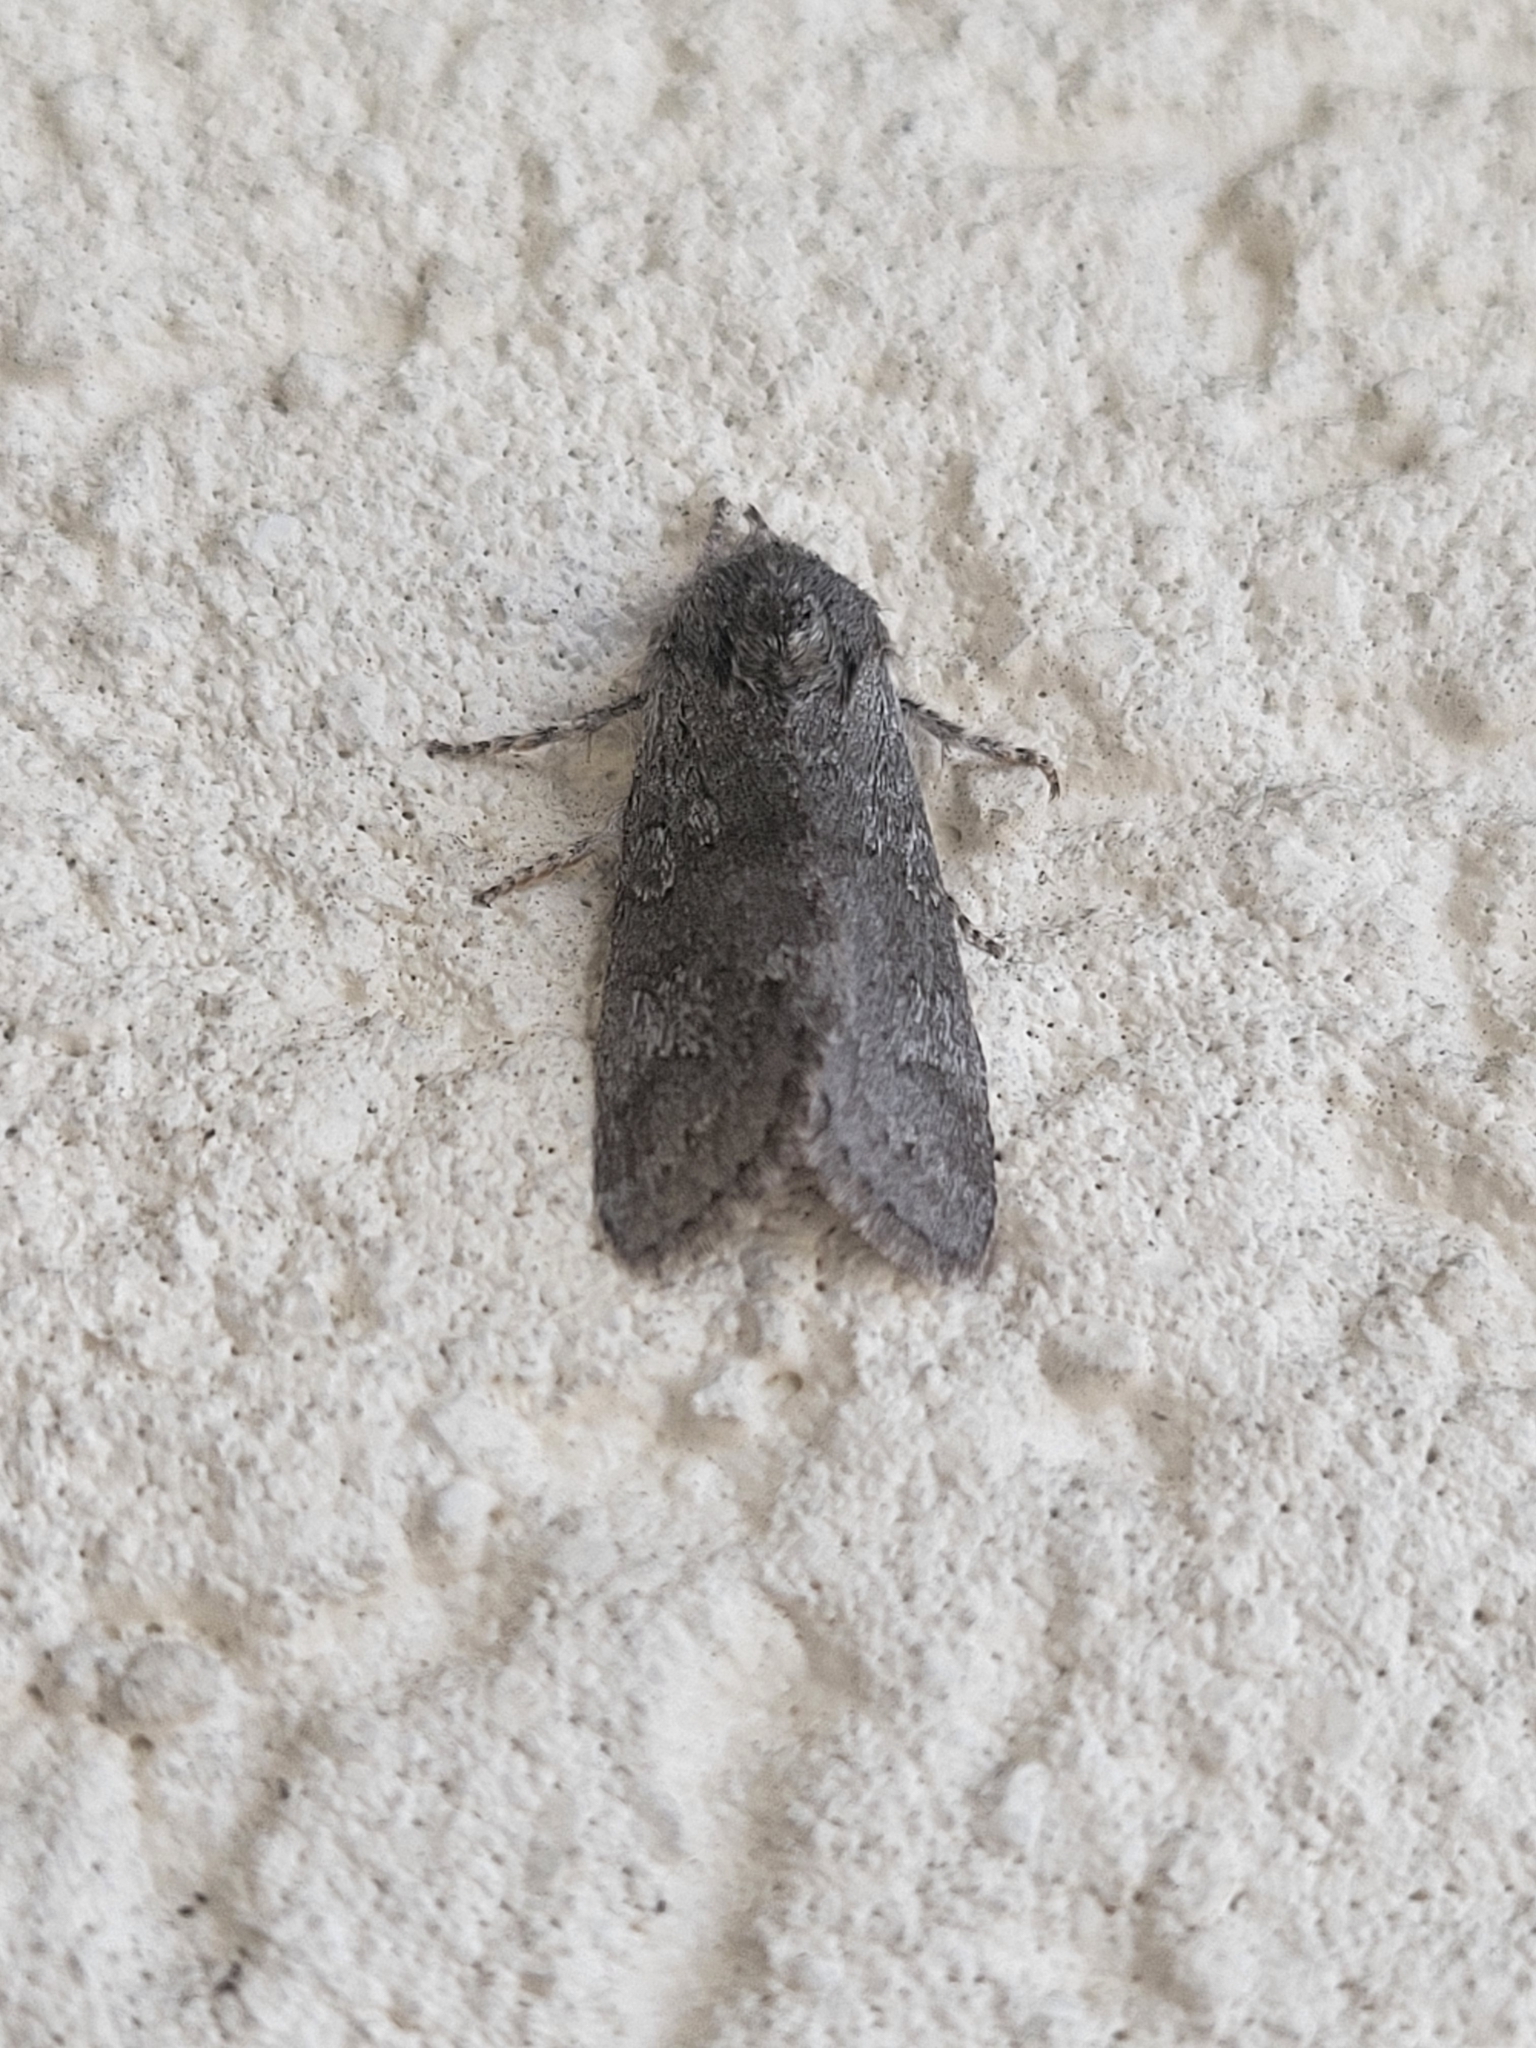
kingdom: Animalia
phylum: Arthropoda
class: Insecta
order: Lepidoptera
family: Noctuidae
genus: Psaphida
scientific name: Psaphida rolandi
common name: Roland's sallow
